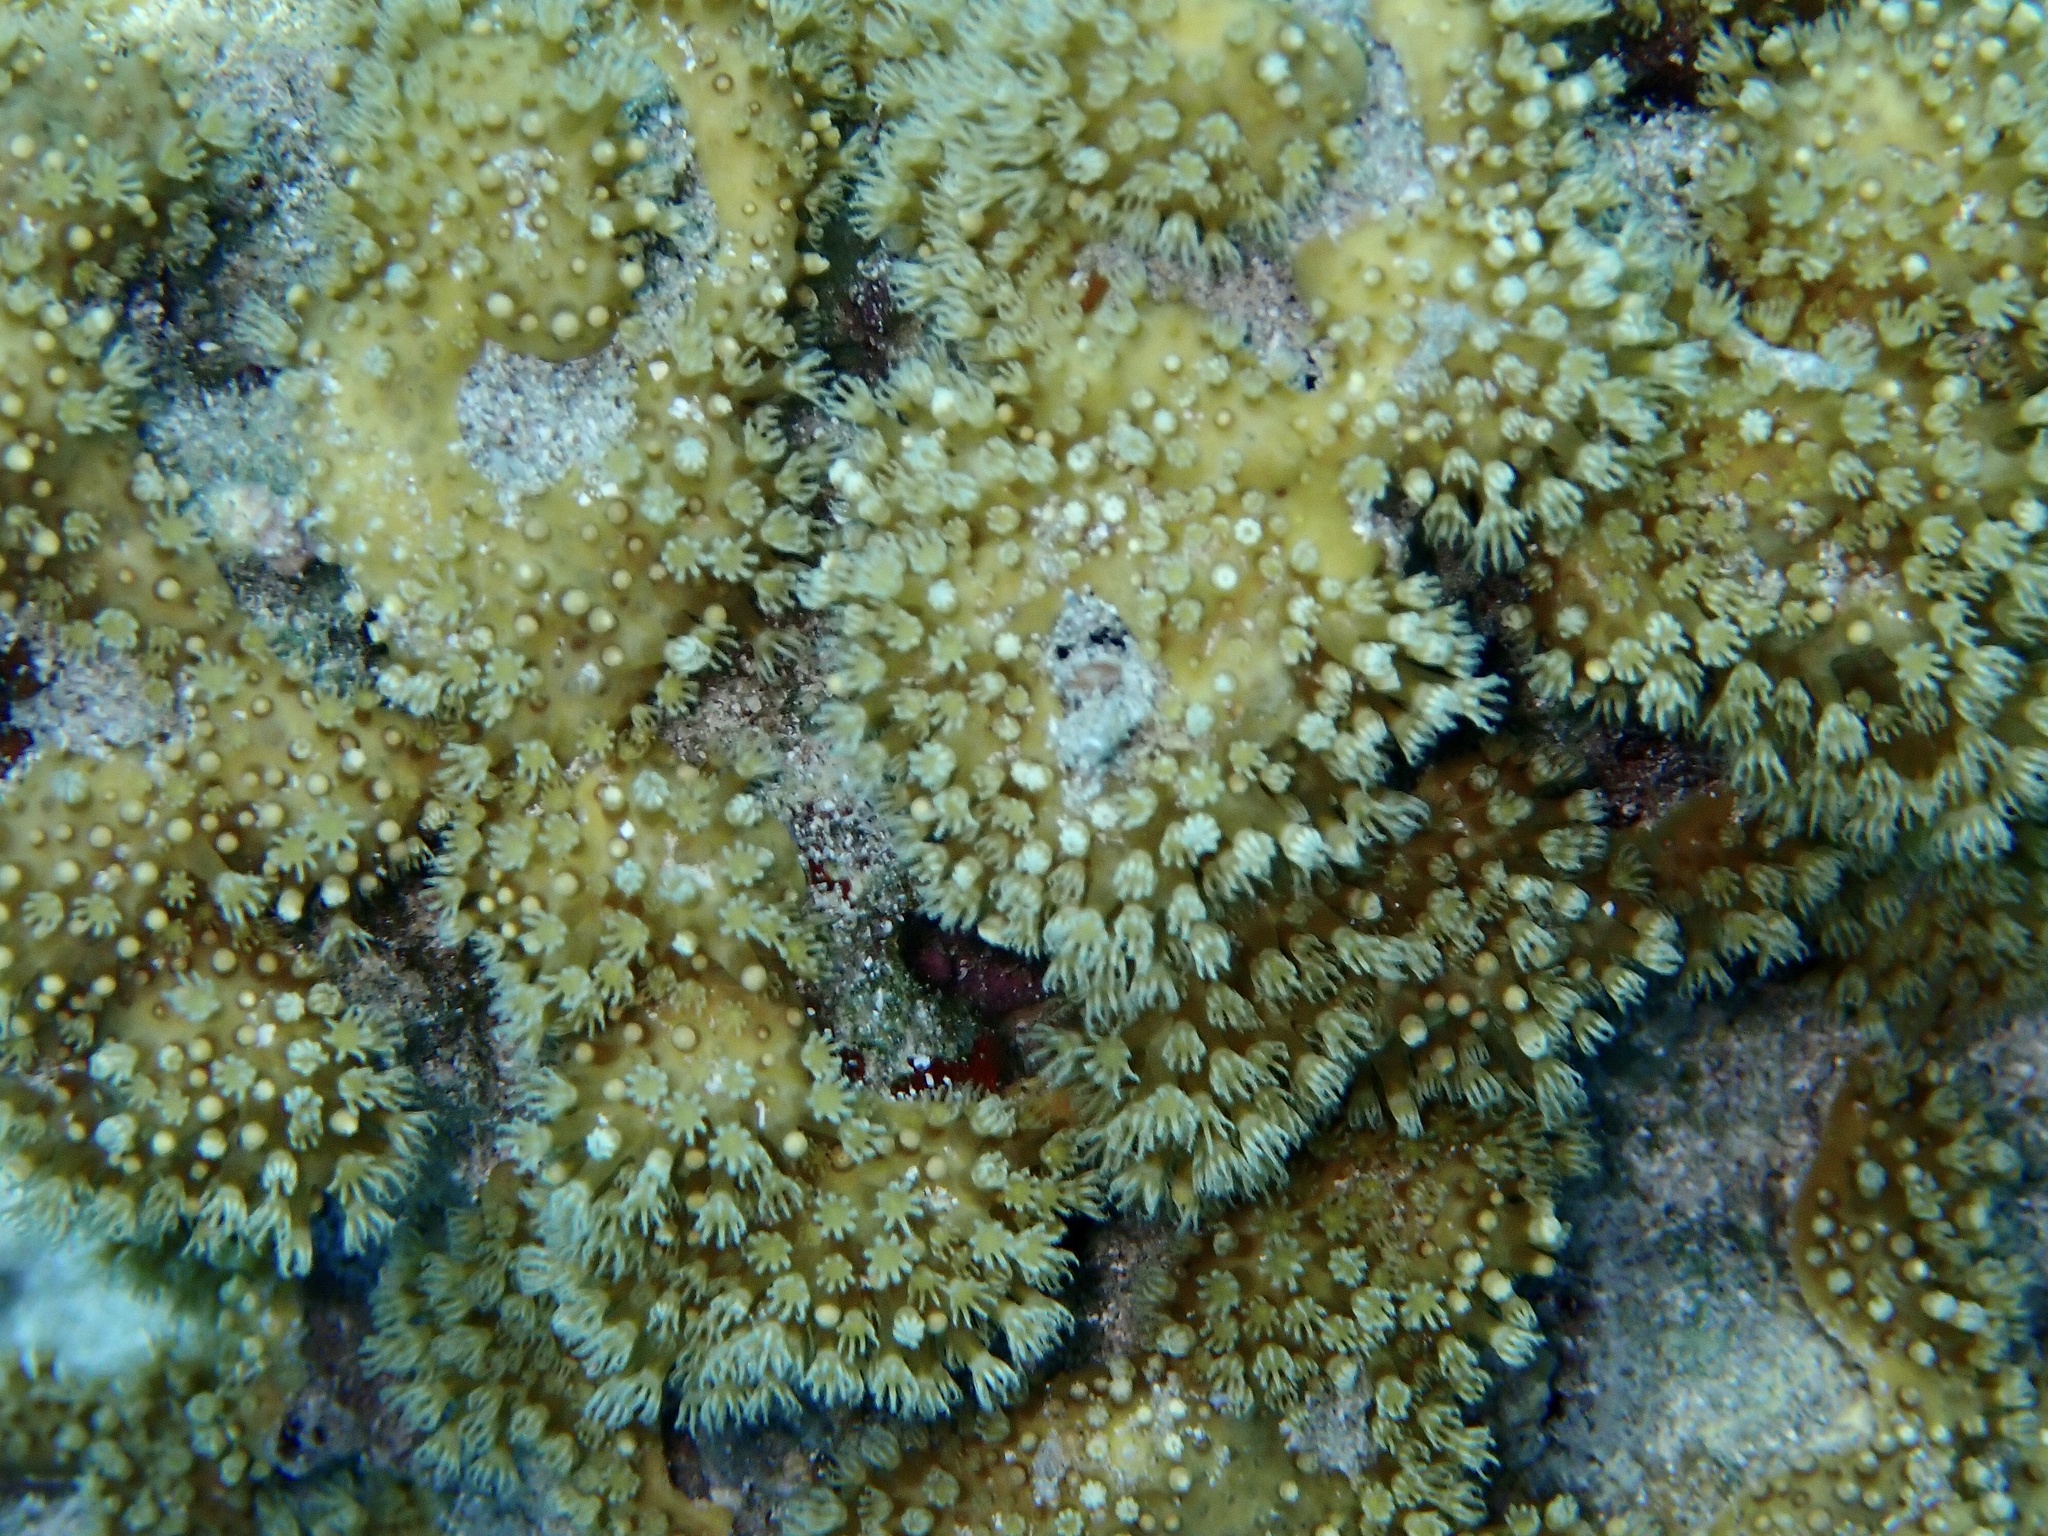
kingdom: Animalia
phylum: Cnidaria
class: Anthozoa
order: Malacalcyonacea
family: Lemnaliadae
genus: Rhytisma
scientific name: Rhytisma fulvum
